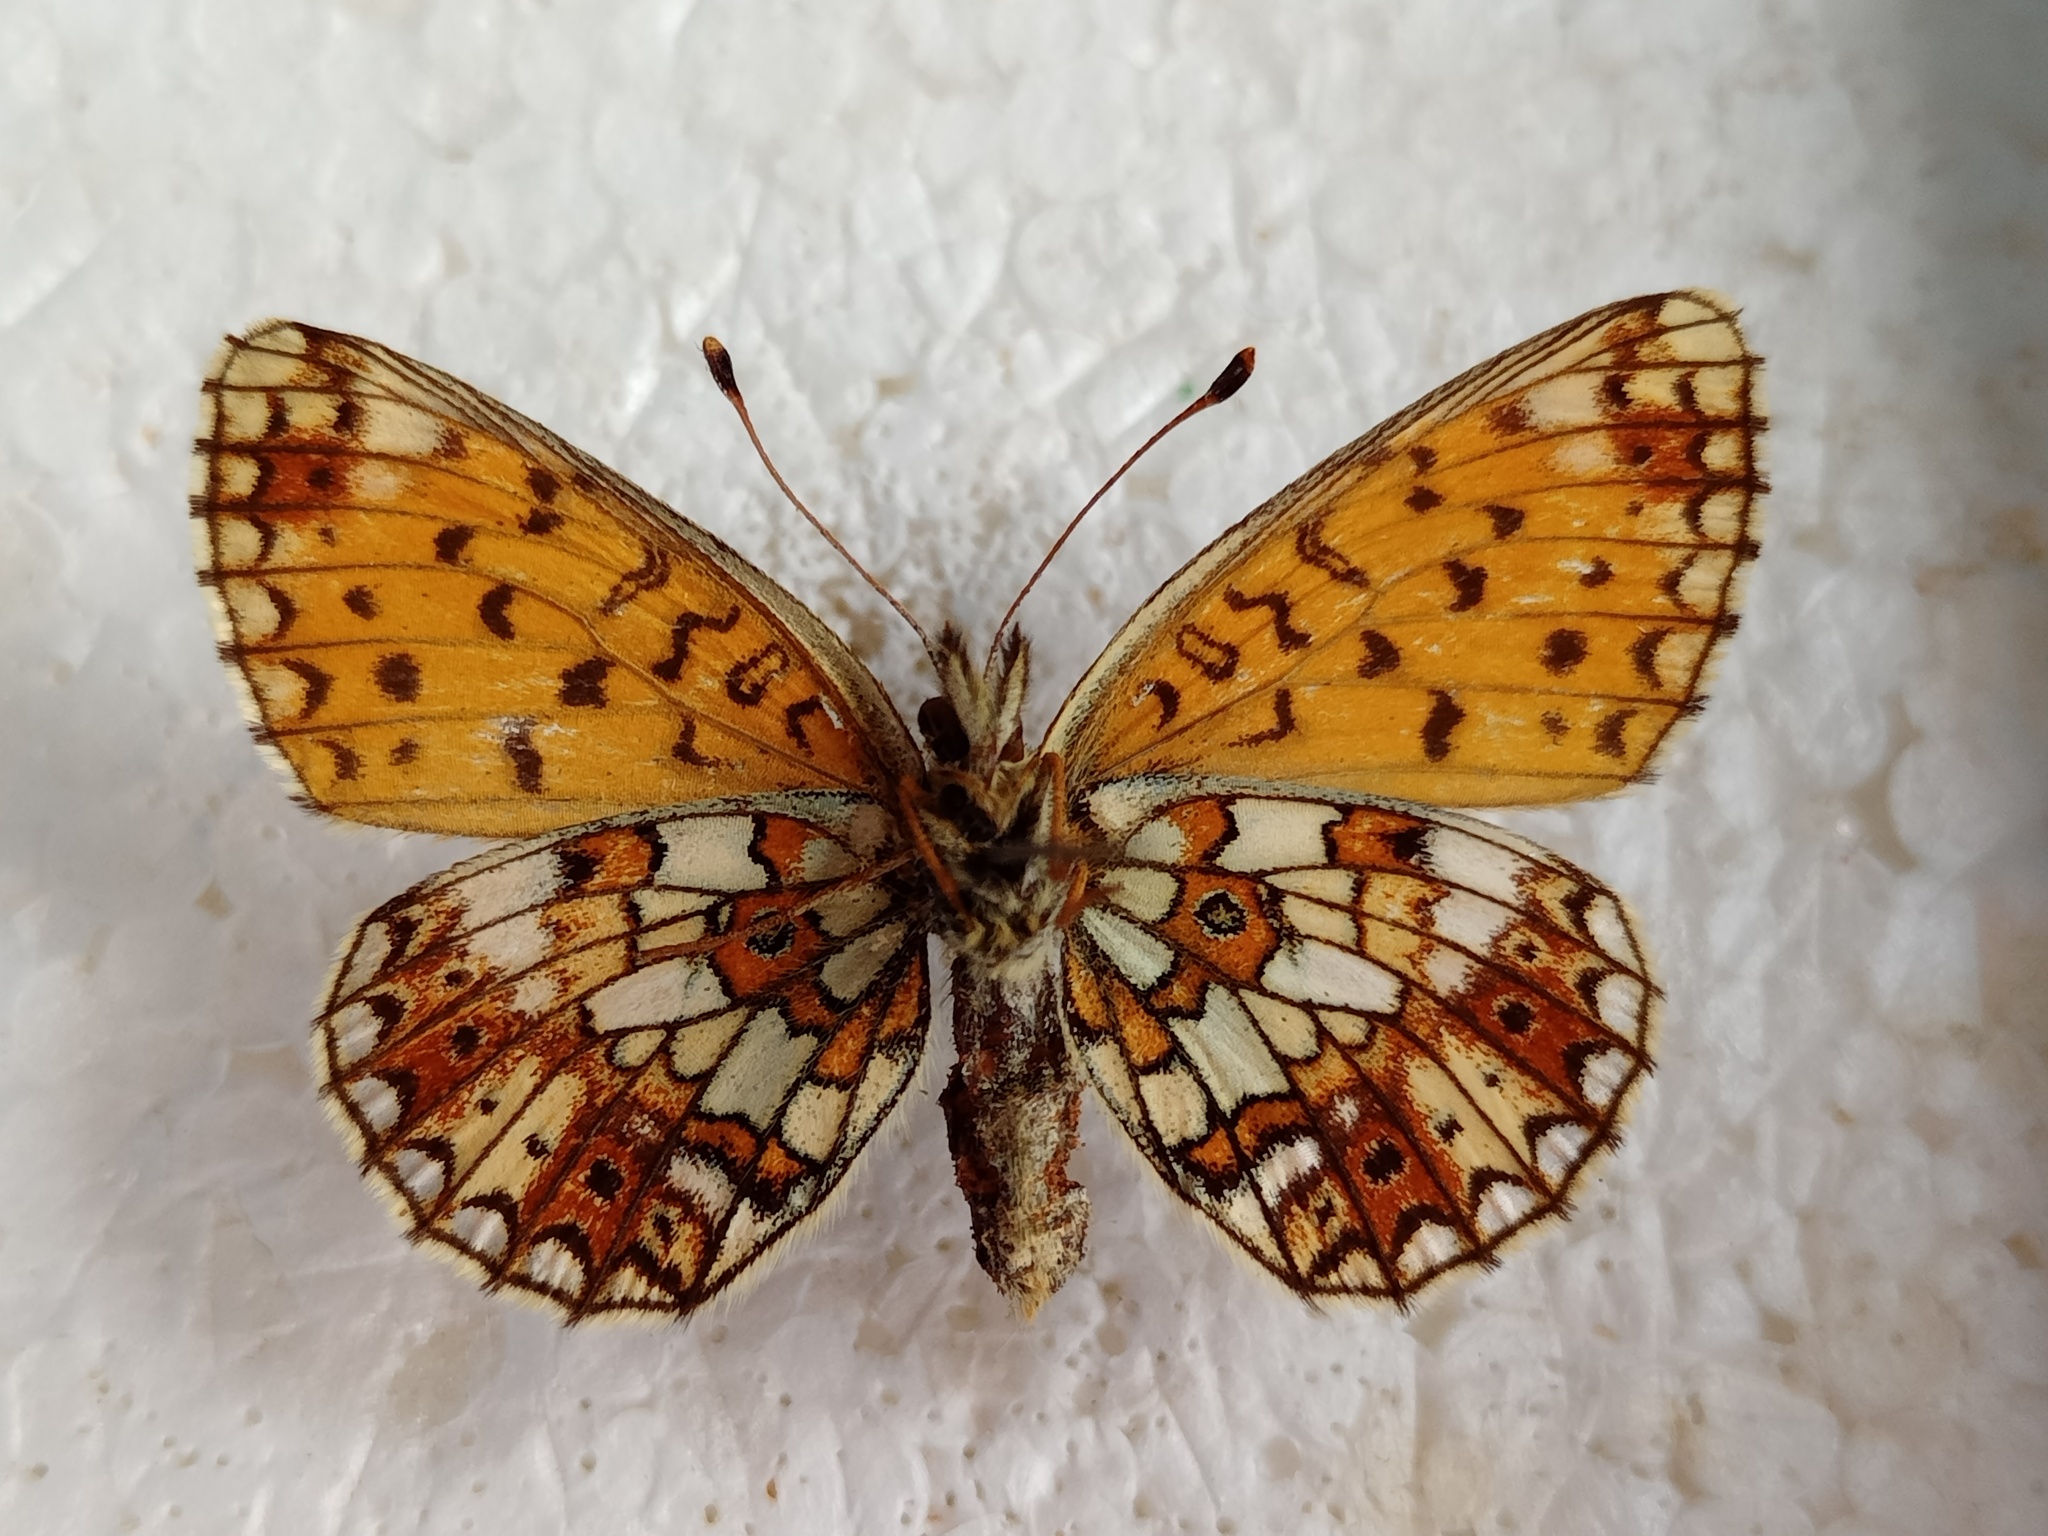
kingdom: Animalia
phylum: Arthropoda
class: Insecta
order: Lepidoptera
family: Nymphalidae
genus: Boloria
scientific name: Boloria selene
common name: Small pearl-bordered fritillary
